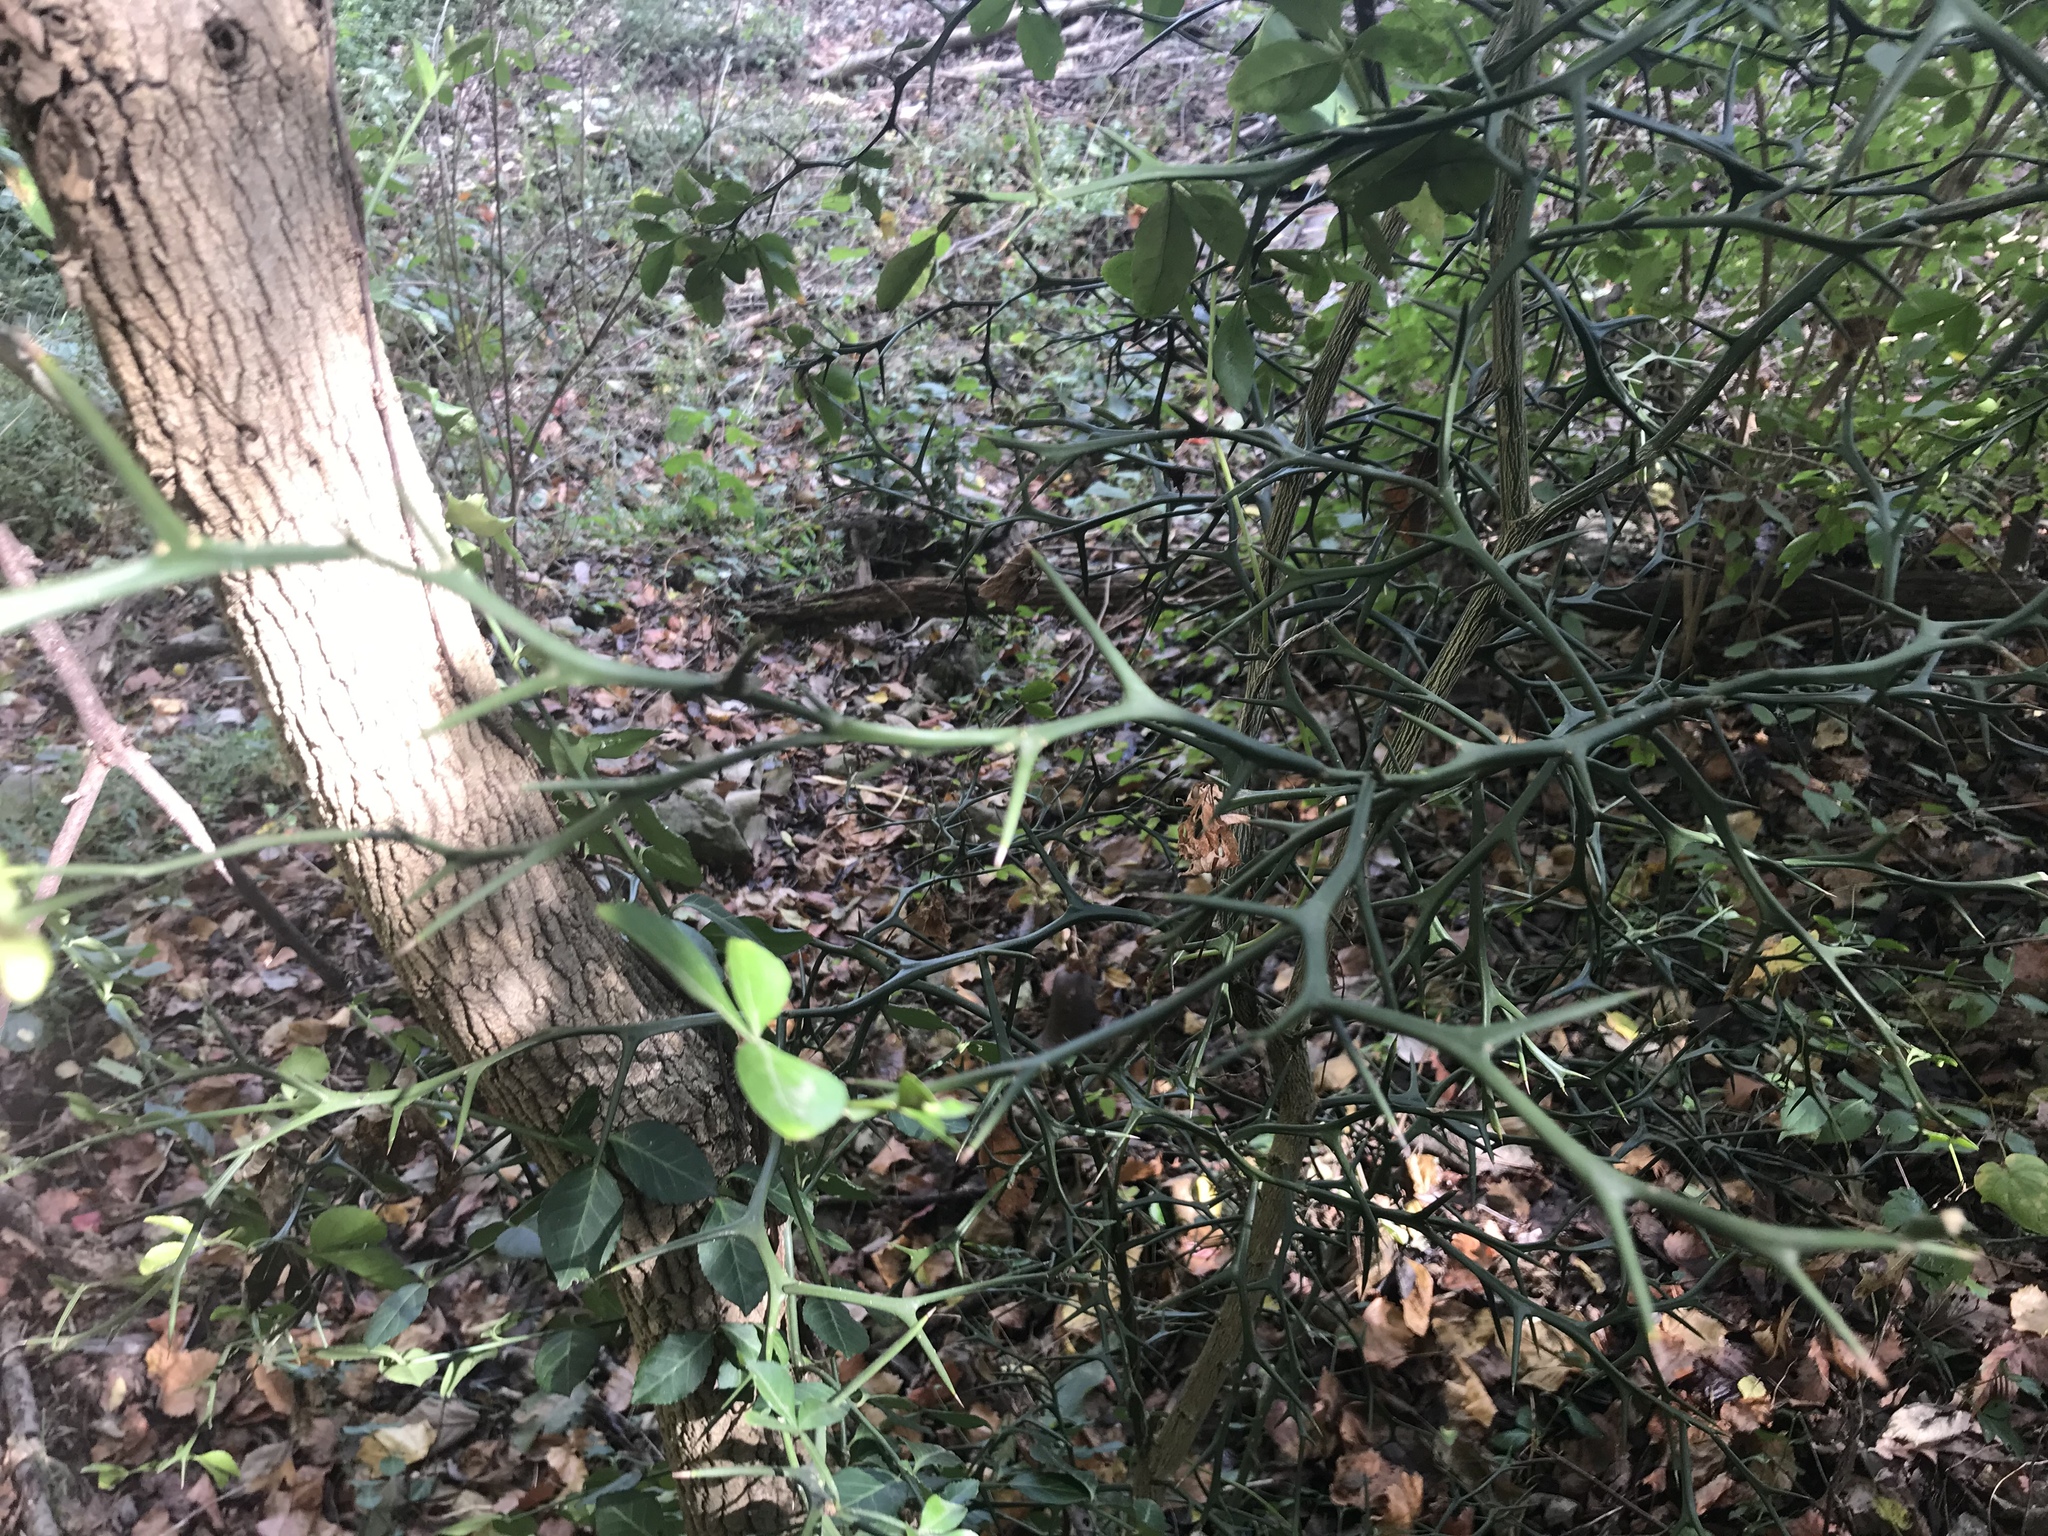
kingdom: Plantae
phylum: Tracheophyta
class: Magnoliopsida
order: Sapindales
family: Rutaceae
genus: Citrus
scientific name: Citrus trifoliata
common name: Japanese bitter-orange
